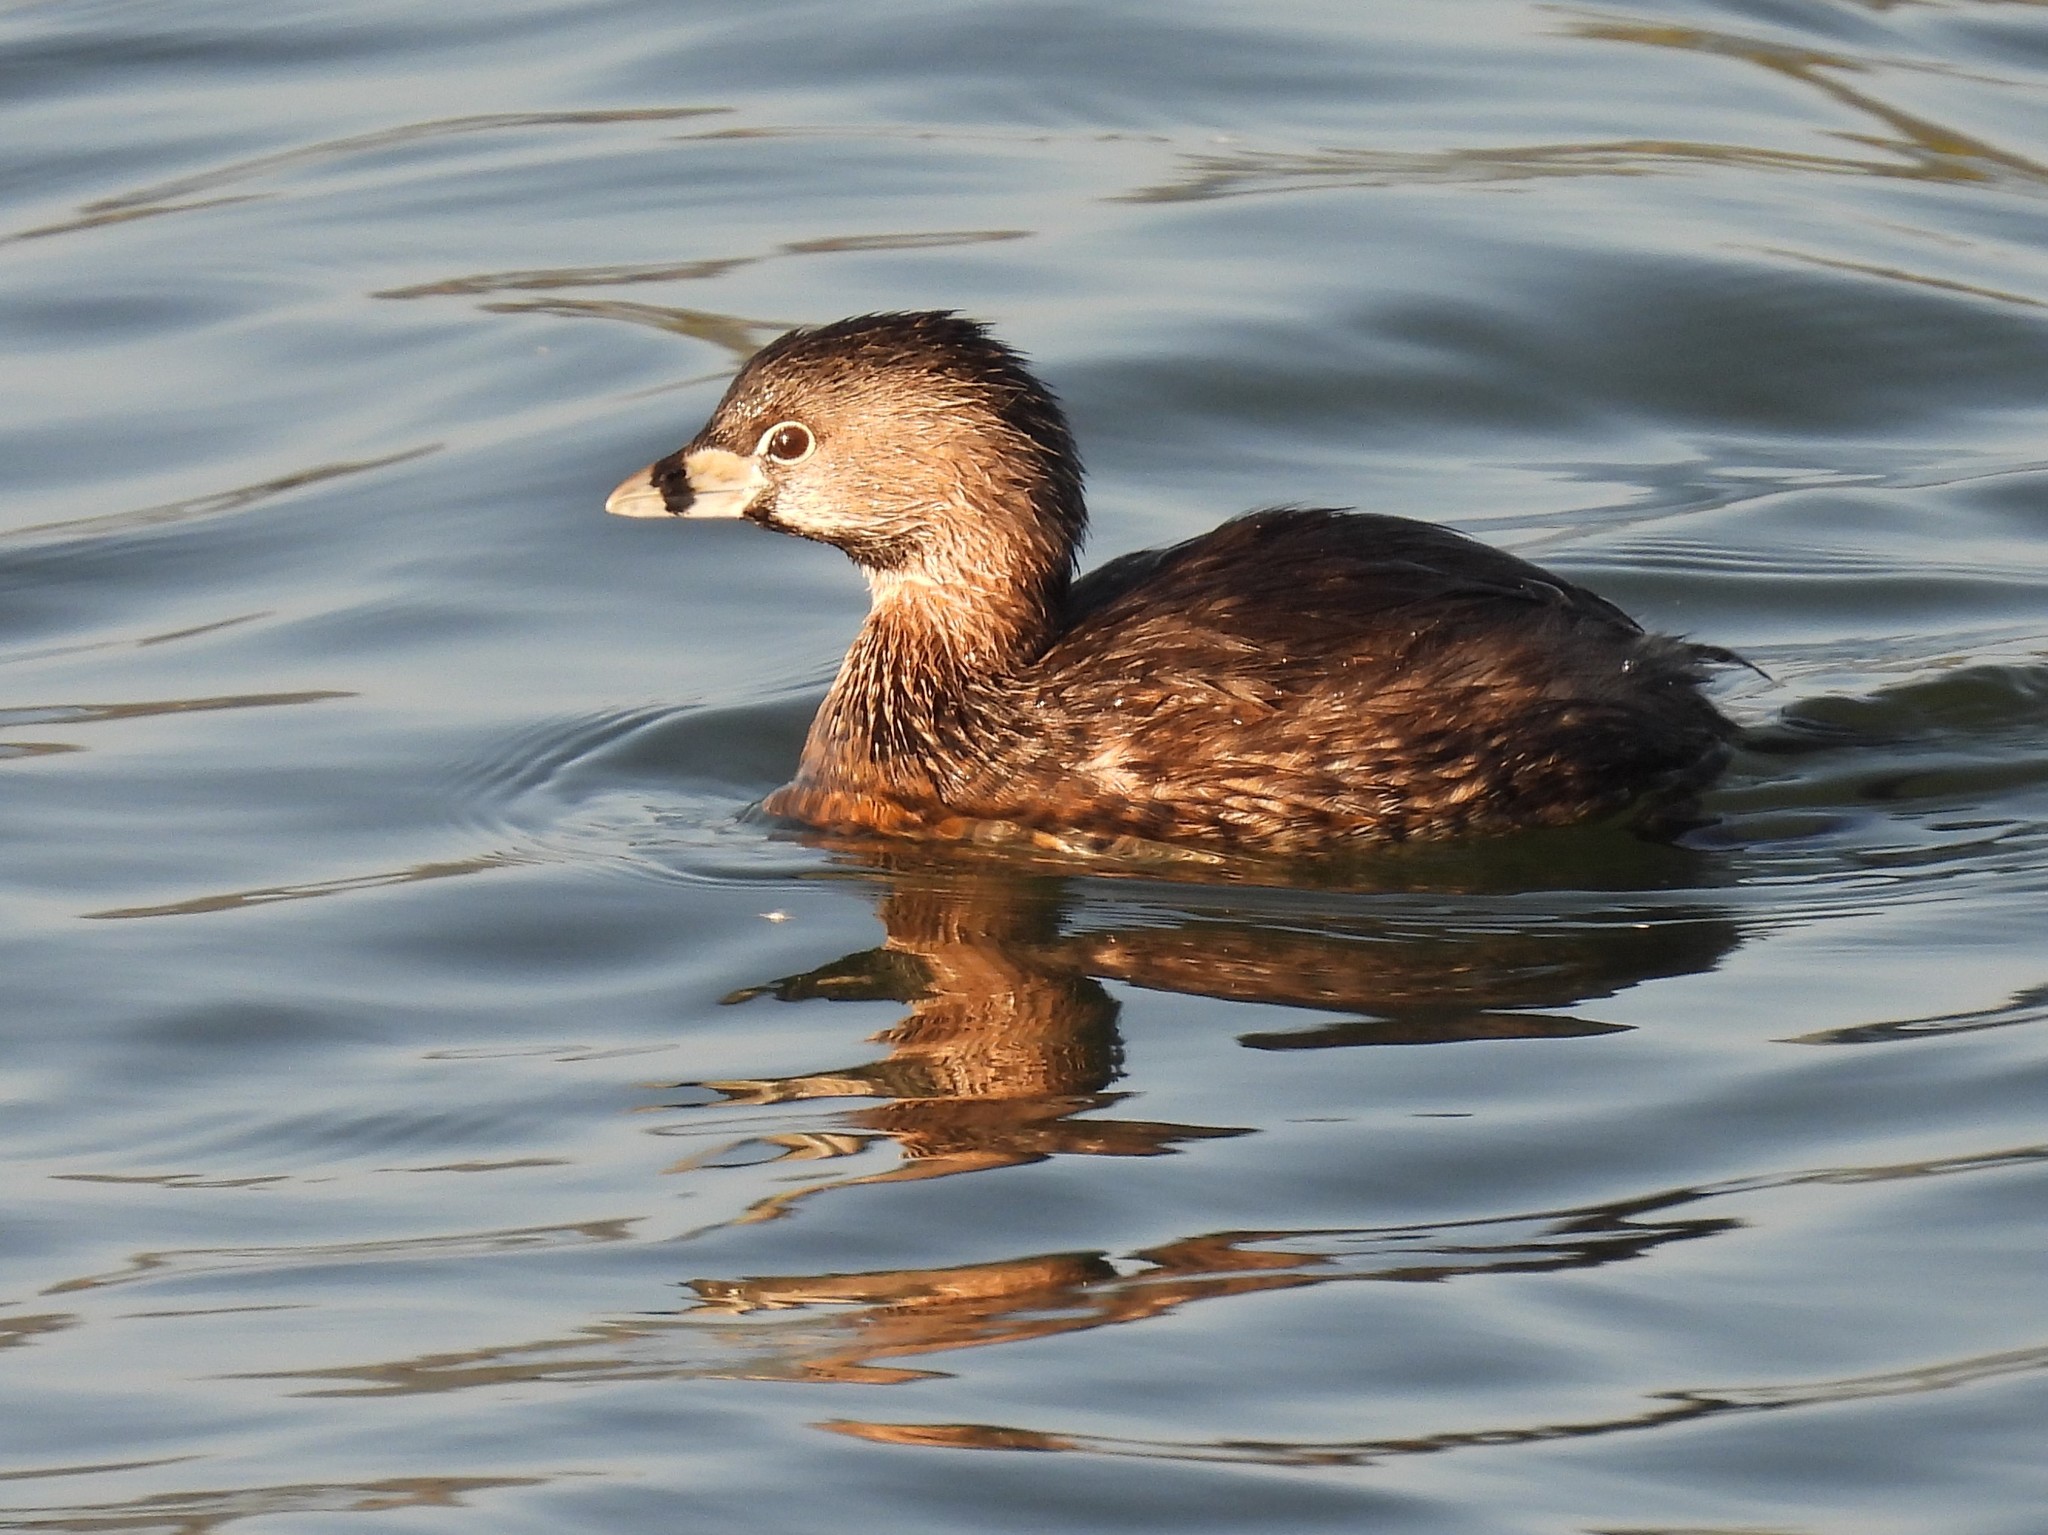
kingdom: Animalia
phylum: Chordata
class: Aves
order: Podicipediformes
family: Podicipedidae
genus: Podilymbus
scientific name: Podilymbus podiceps
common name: Pied-billed grebe
